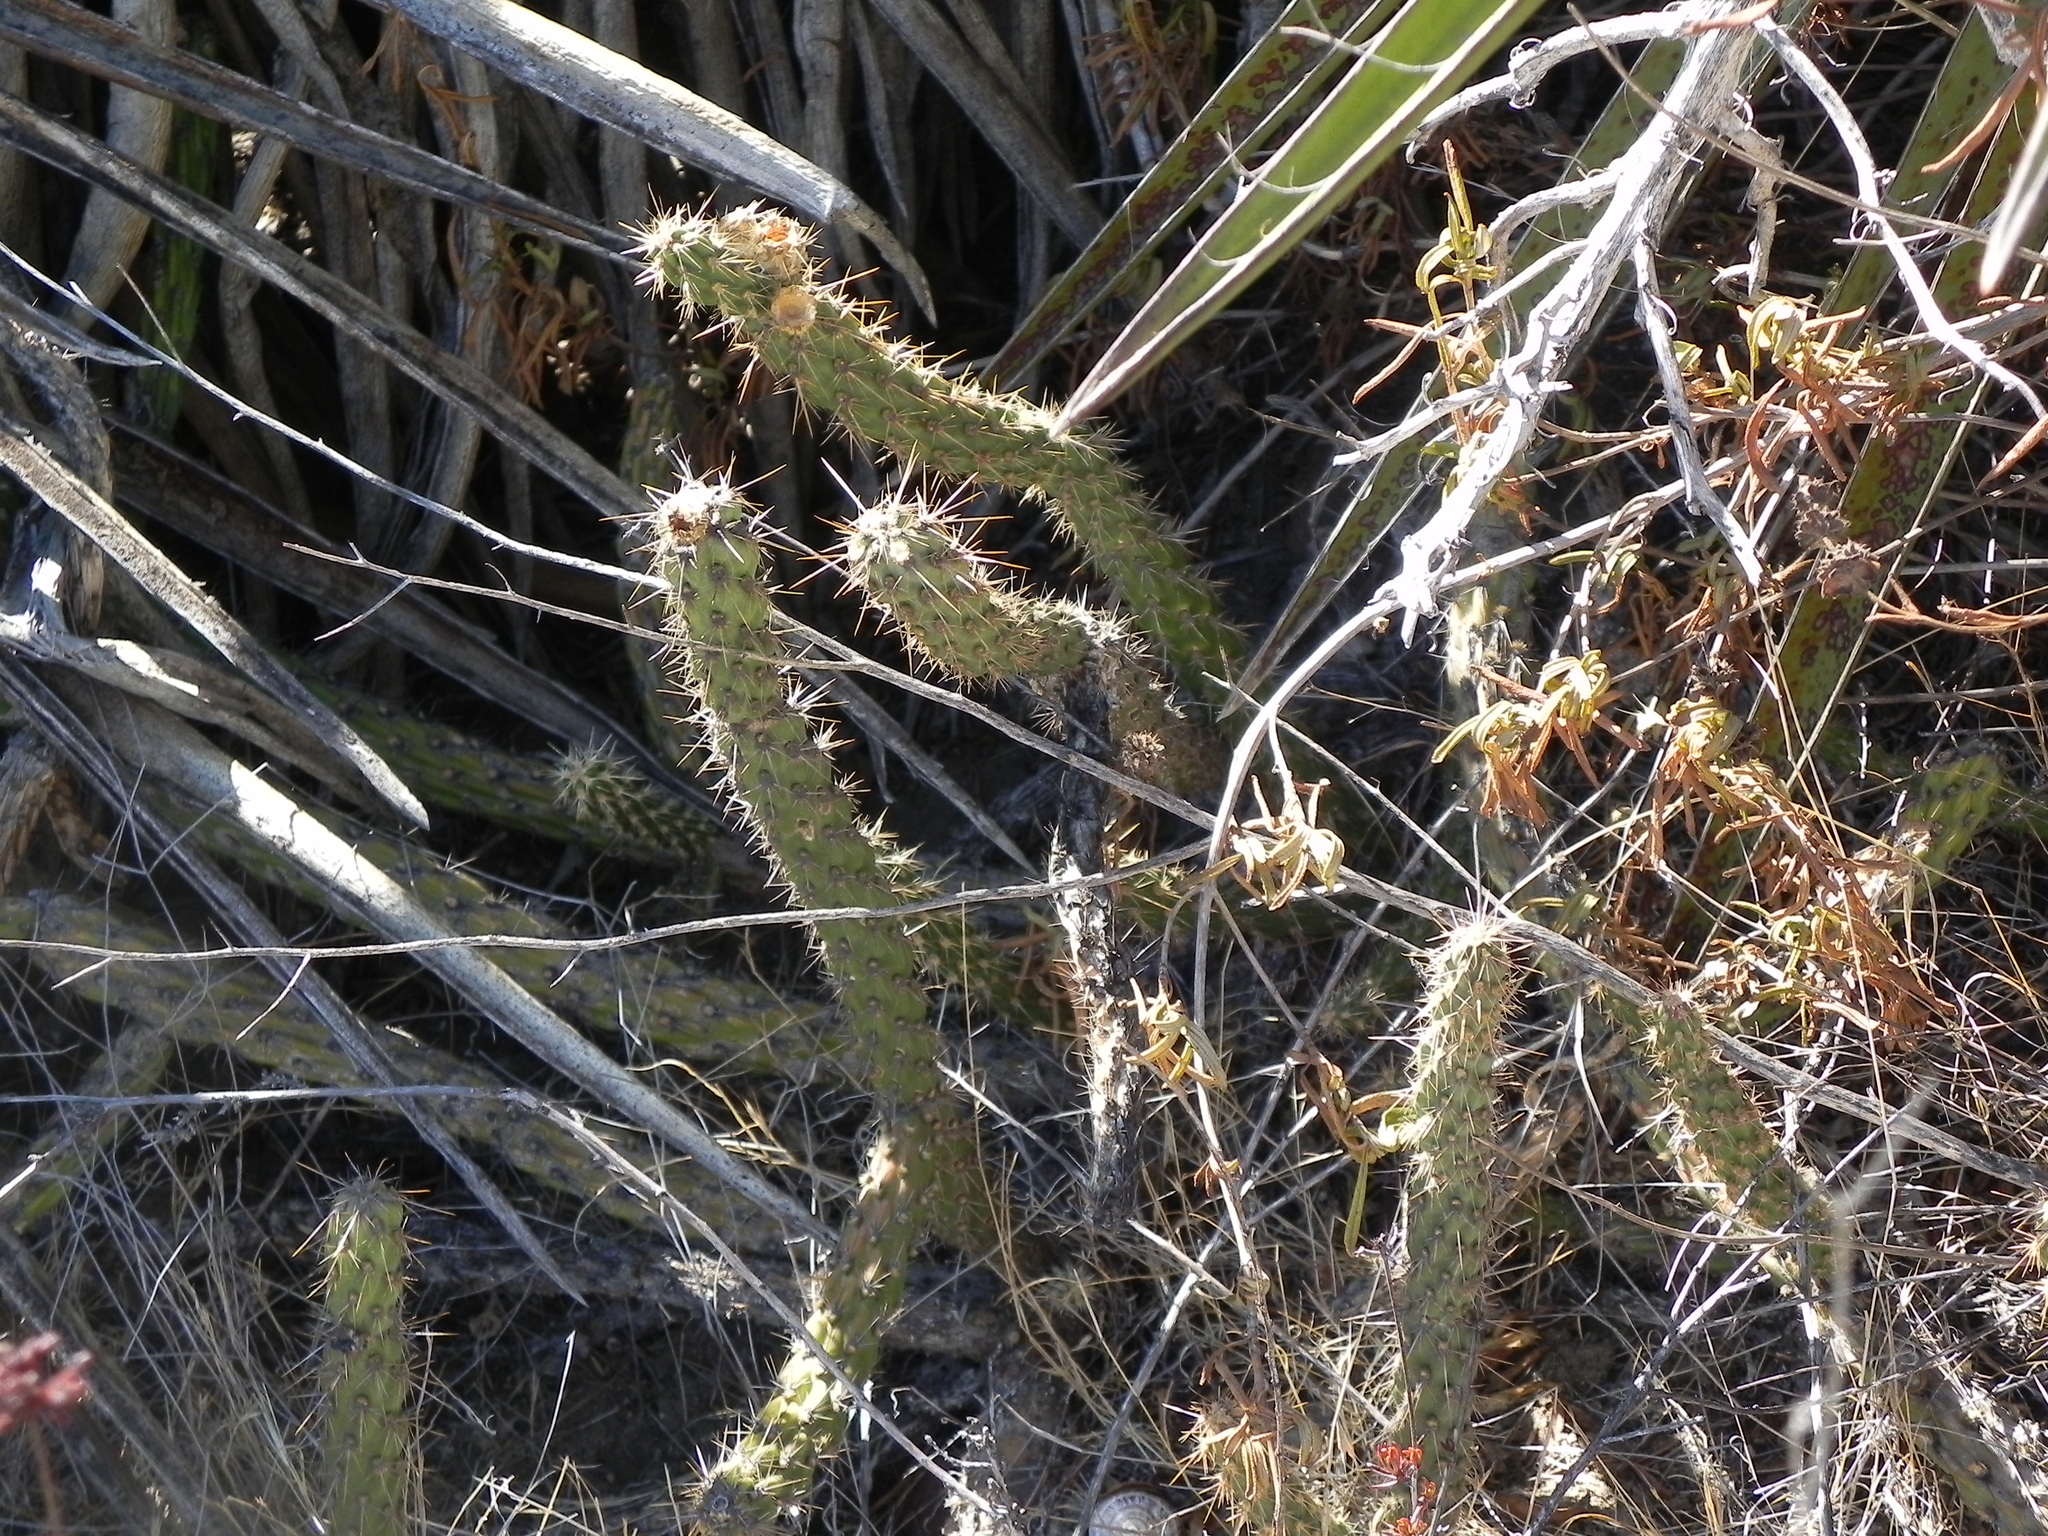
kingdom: Plantae
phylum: Tracheophyta
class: Magnoliopsida
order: Caryophyllales
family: Cactaceae
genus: Cylindropuntia
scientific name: Cylindropuntia californica
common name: Snake cholla
